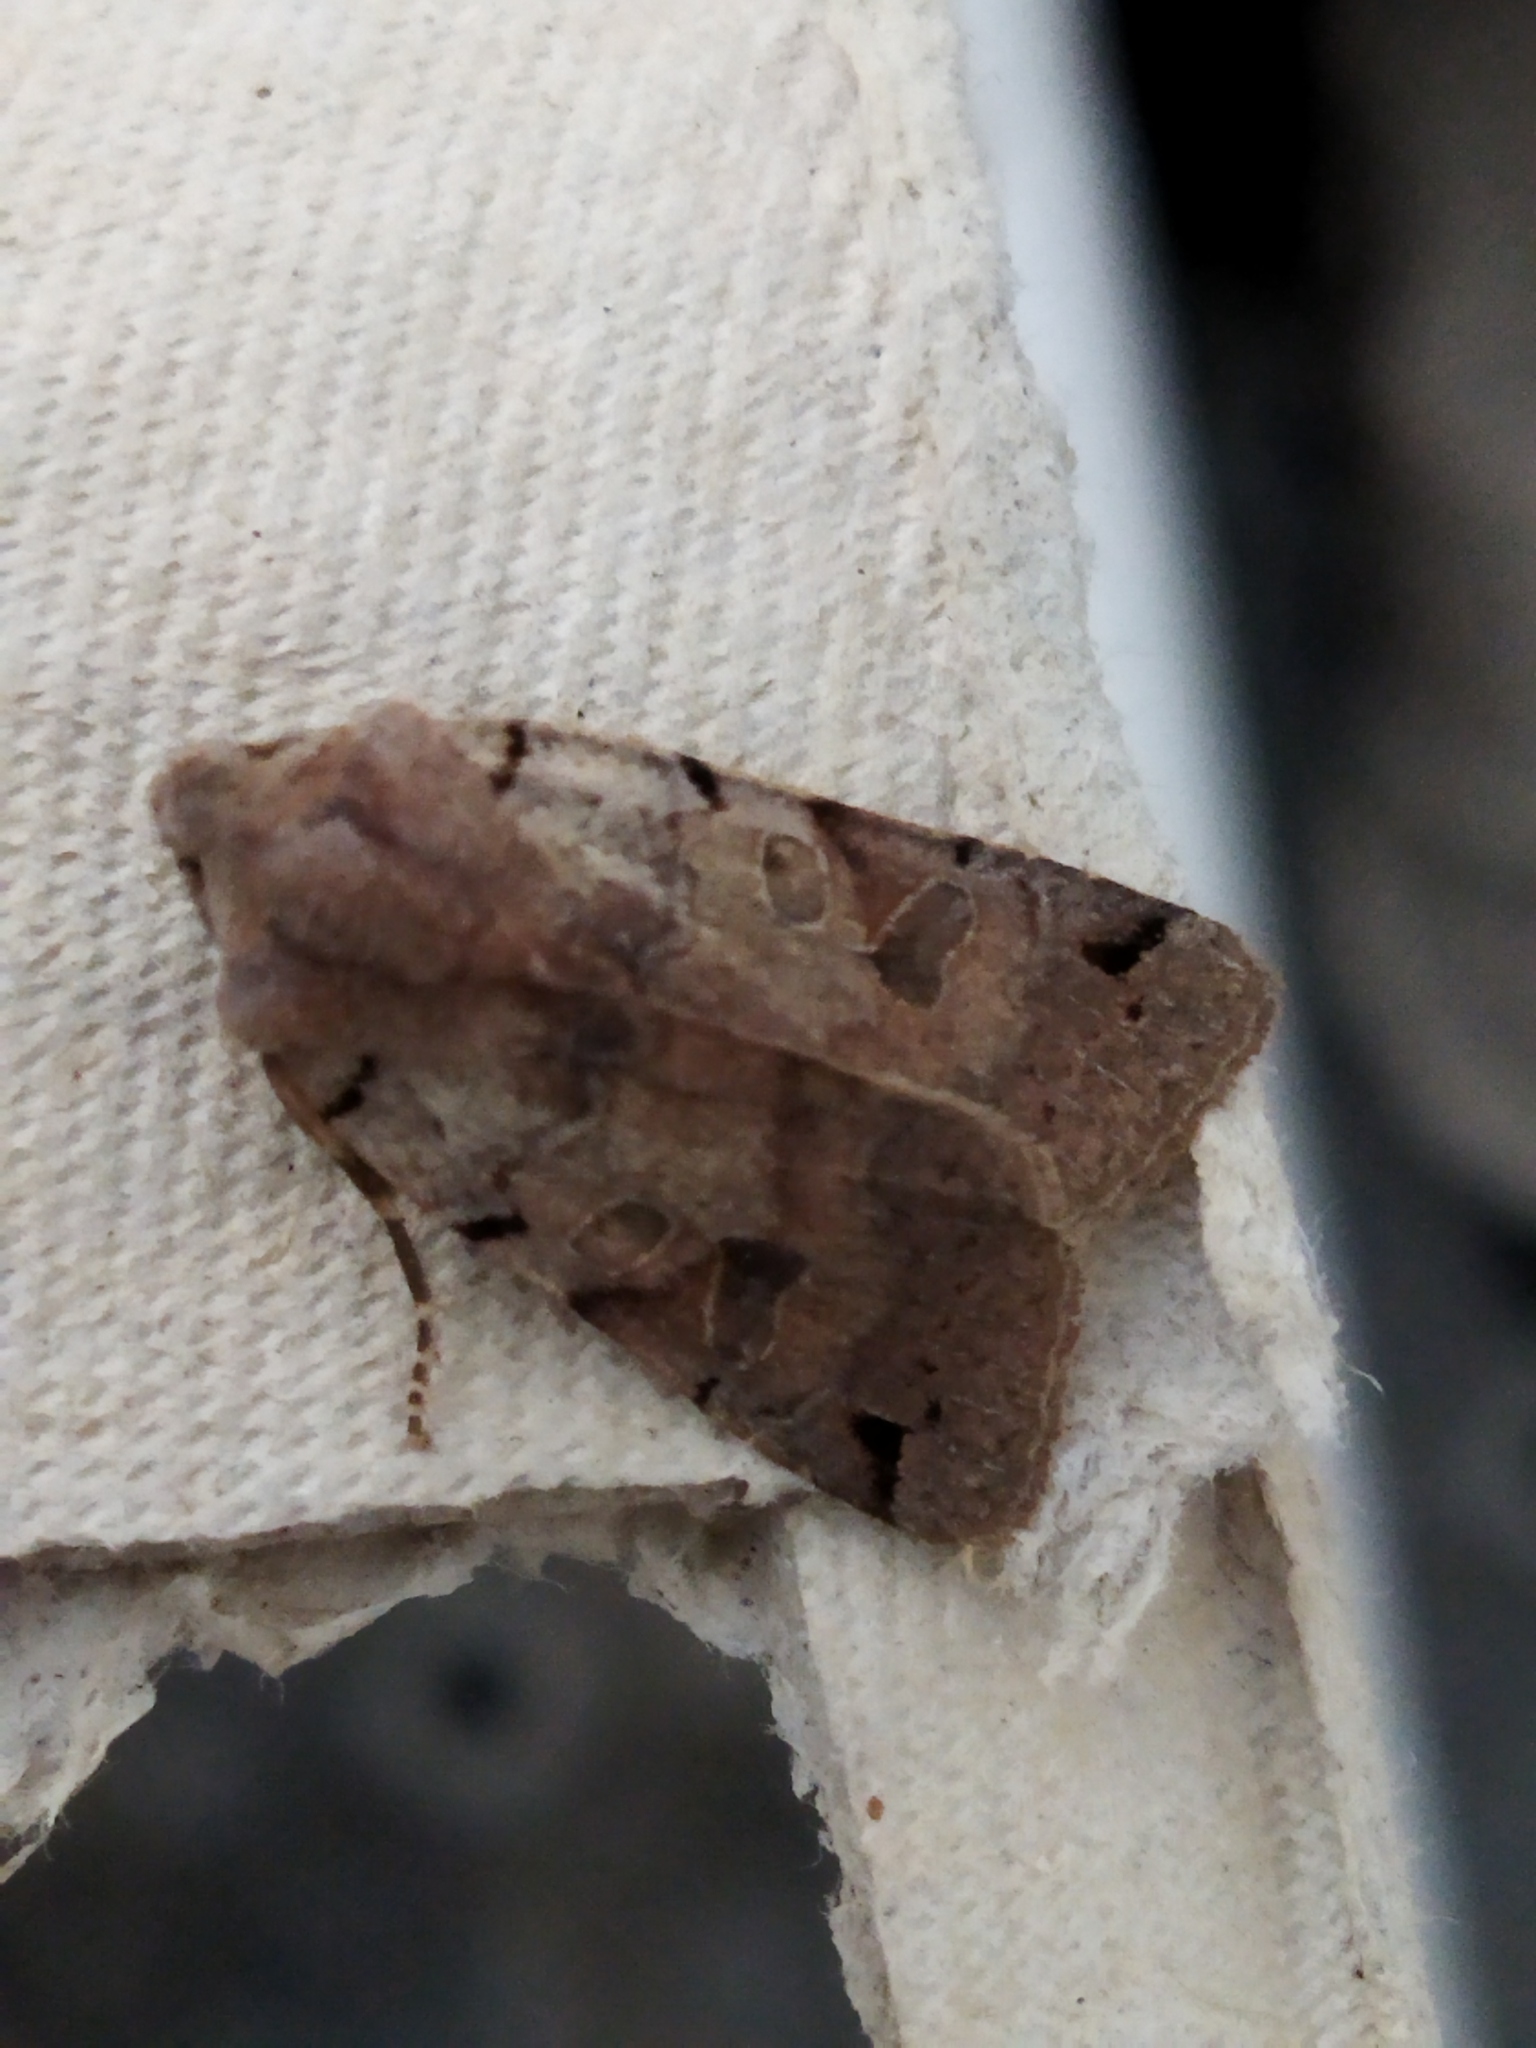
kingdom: Animalia
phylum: Arthropoda
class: Insecta
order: Lepidoptera
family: Noctuidae
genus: Agrochola
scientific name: Agrochola litura
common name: Brown-spot pinion
